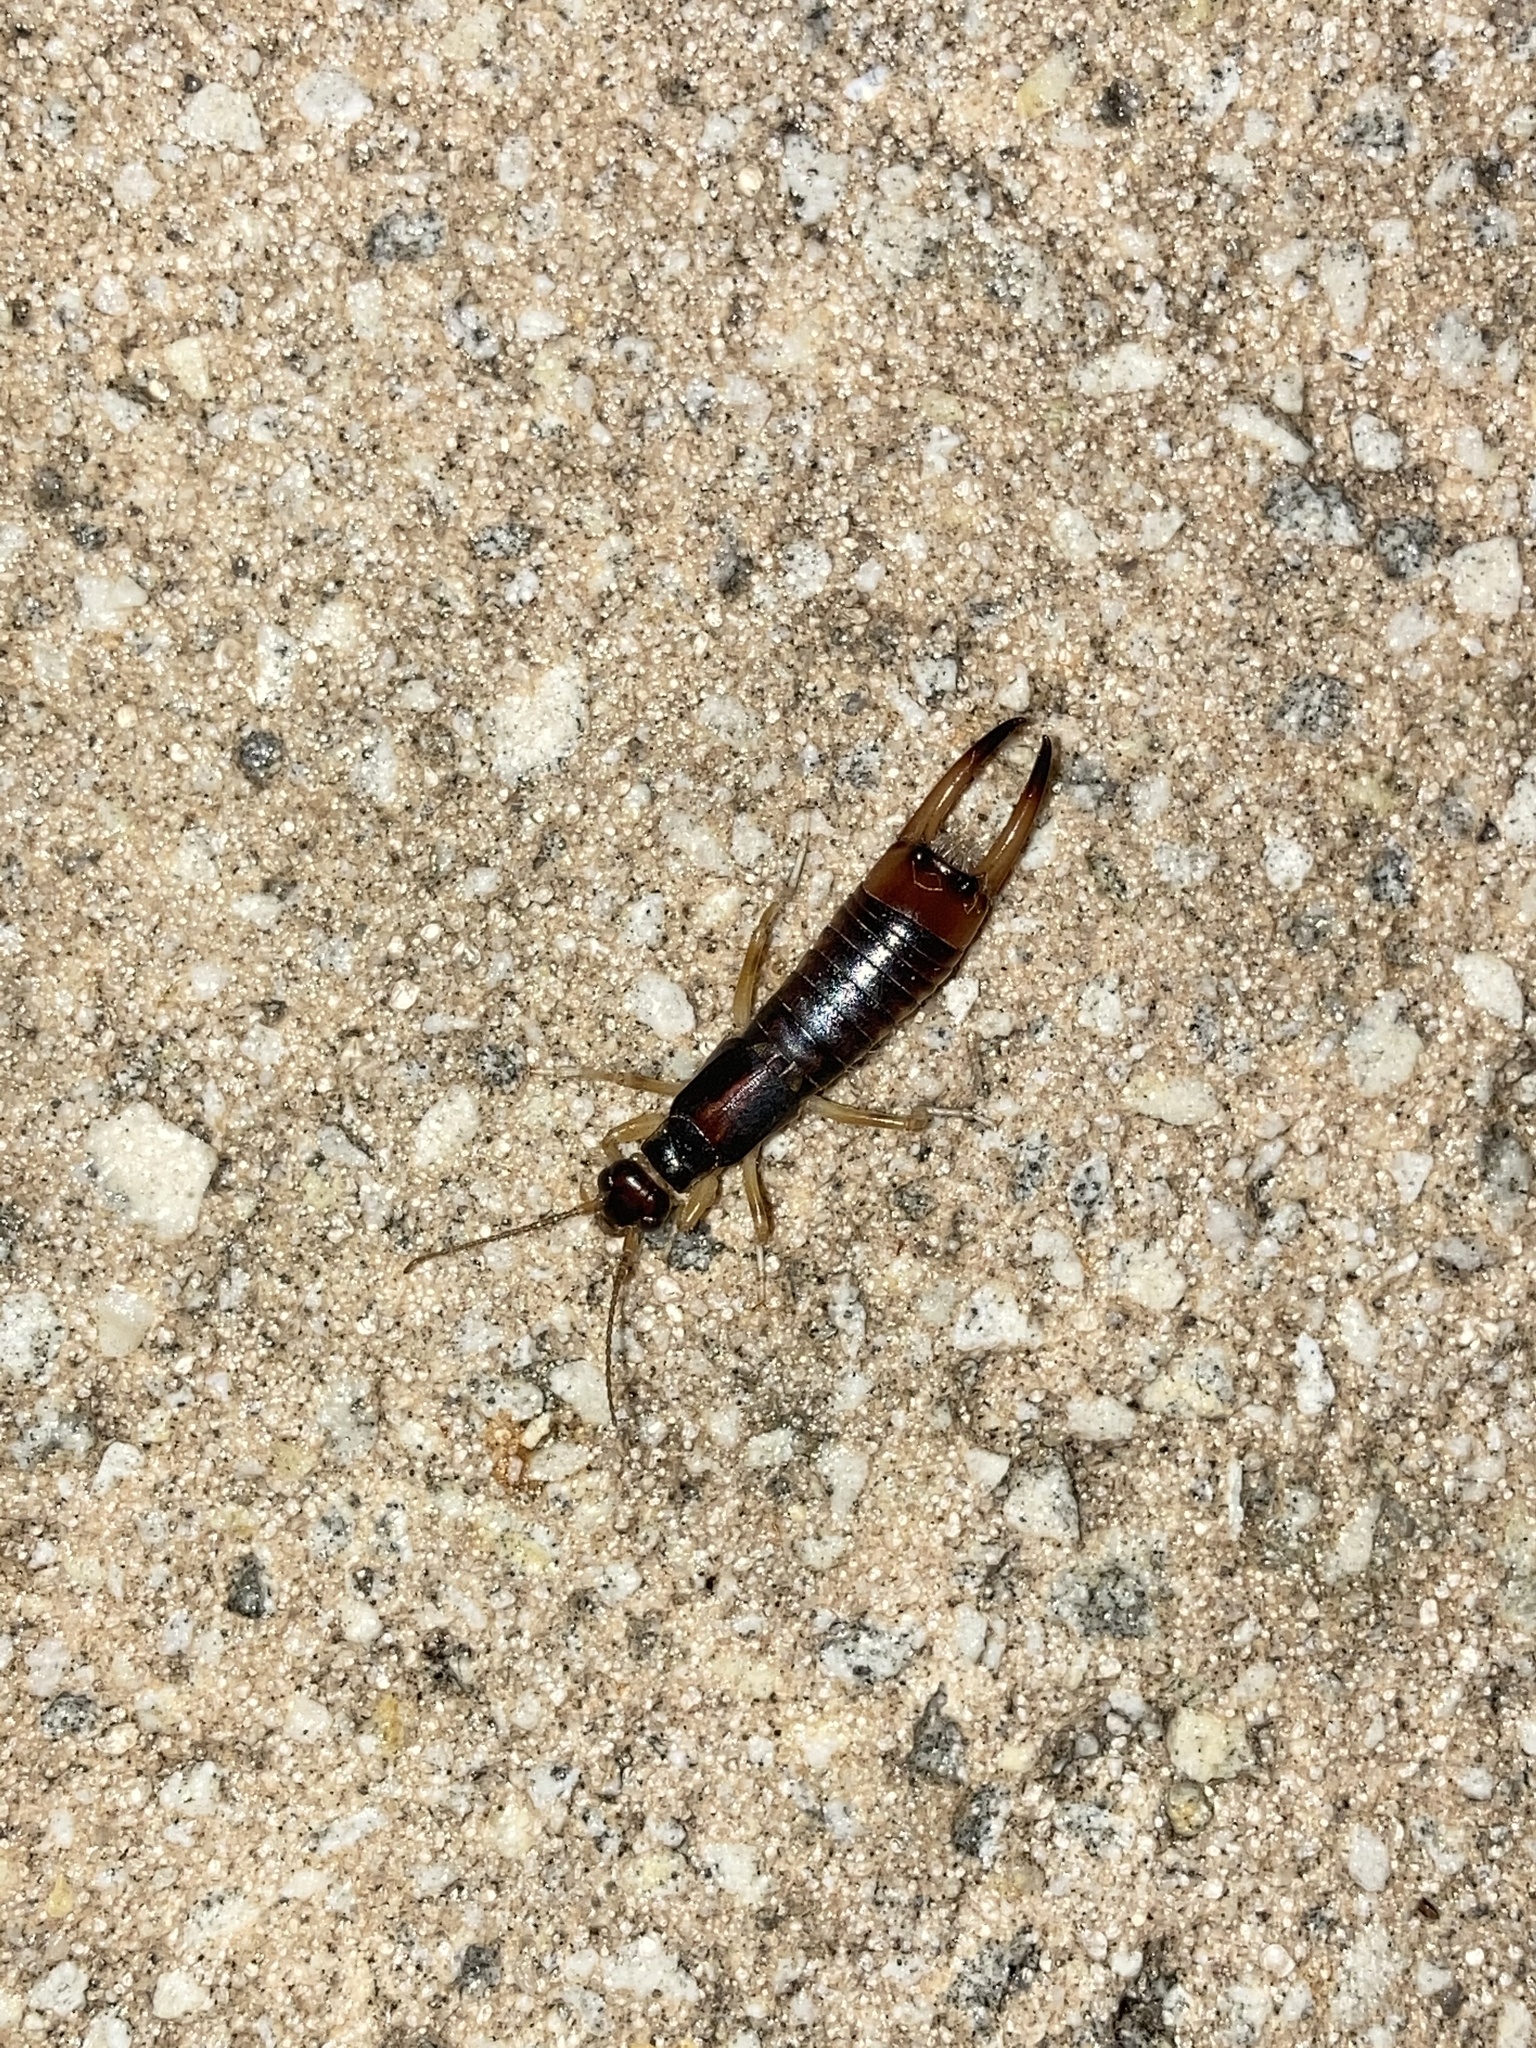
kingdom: Animalia
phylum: Arthropoda
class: Insecta
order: Dermaptera
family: Labiduridae
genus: Labidura
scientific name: Labidura riparia
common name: Striped earwig
